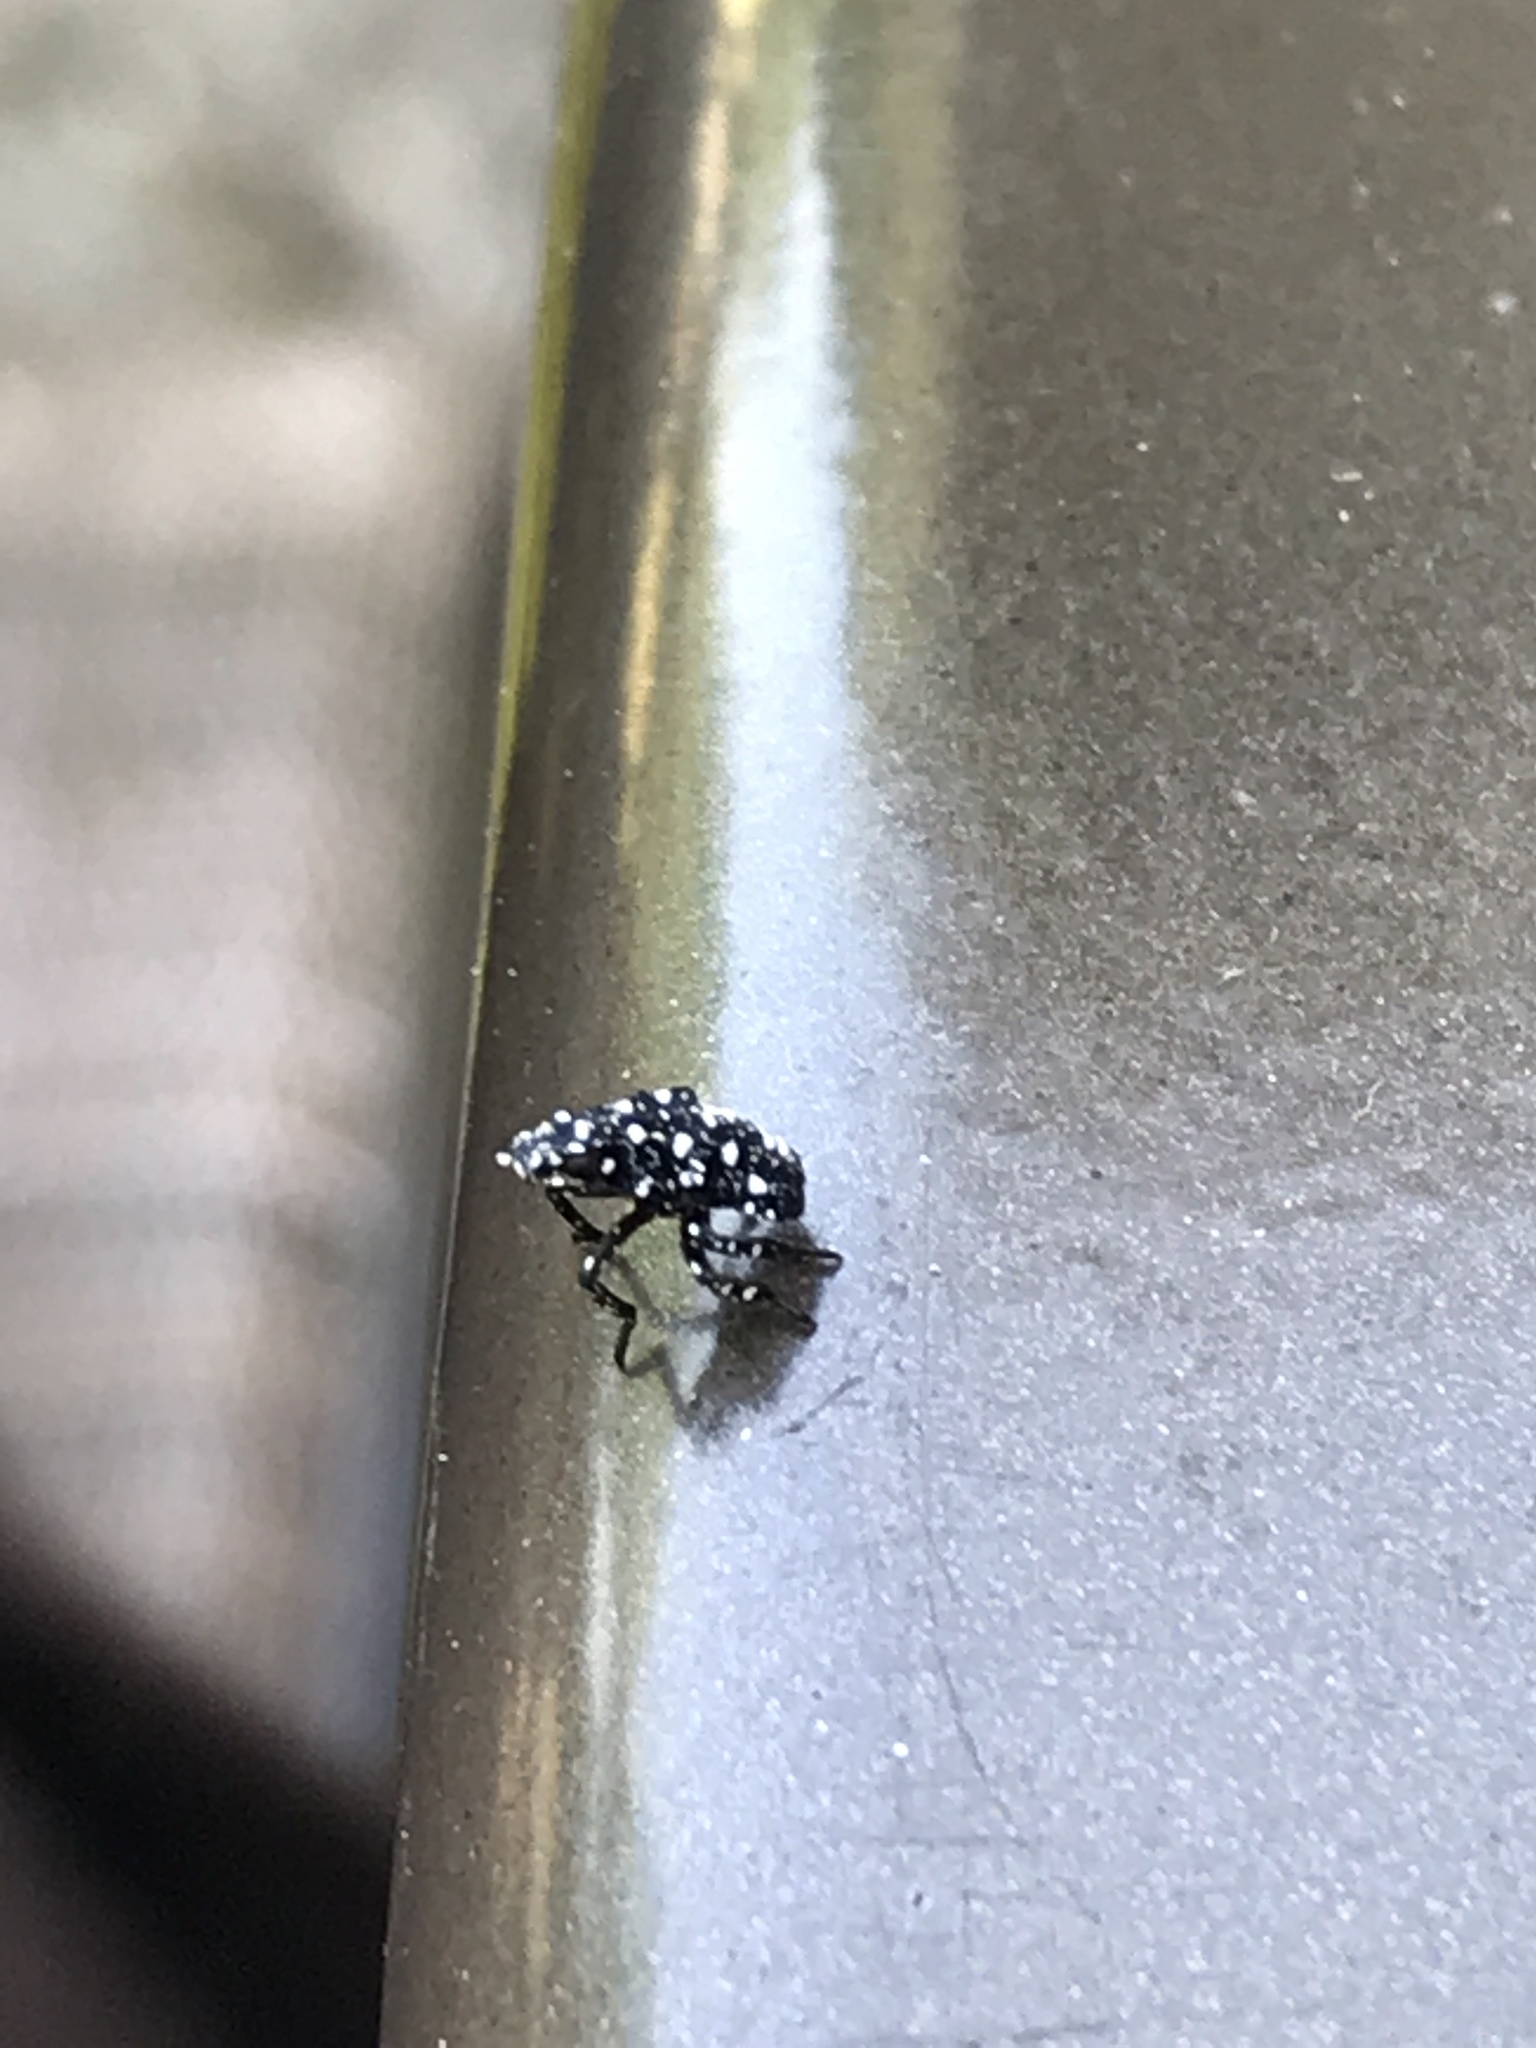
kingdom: Animalia
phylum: Arthropoda
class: Insecta
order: Hemiptera
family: Fulgoridae
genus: Lycorma
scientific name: Lycorma delicatula
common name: Spotted lanternfly
